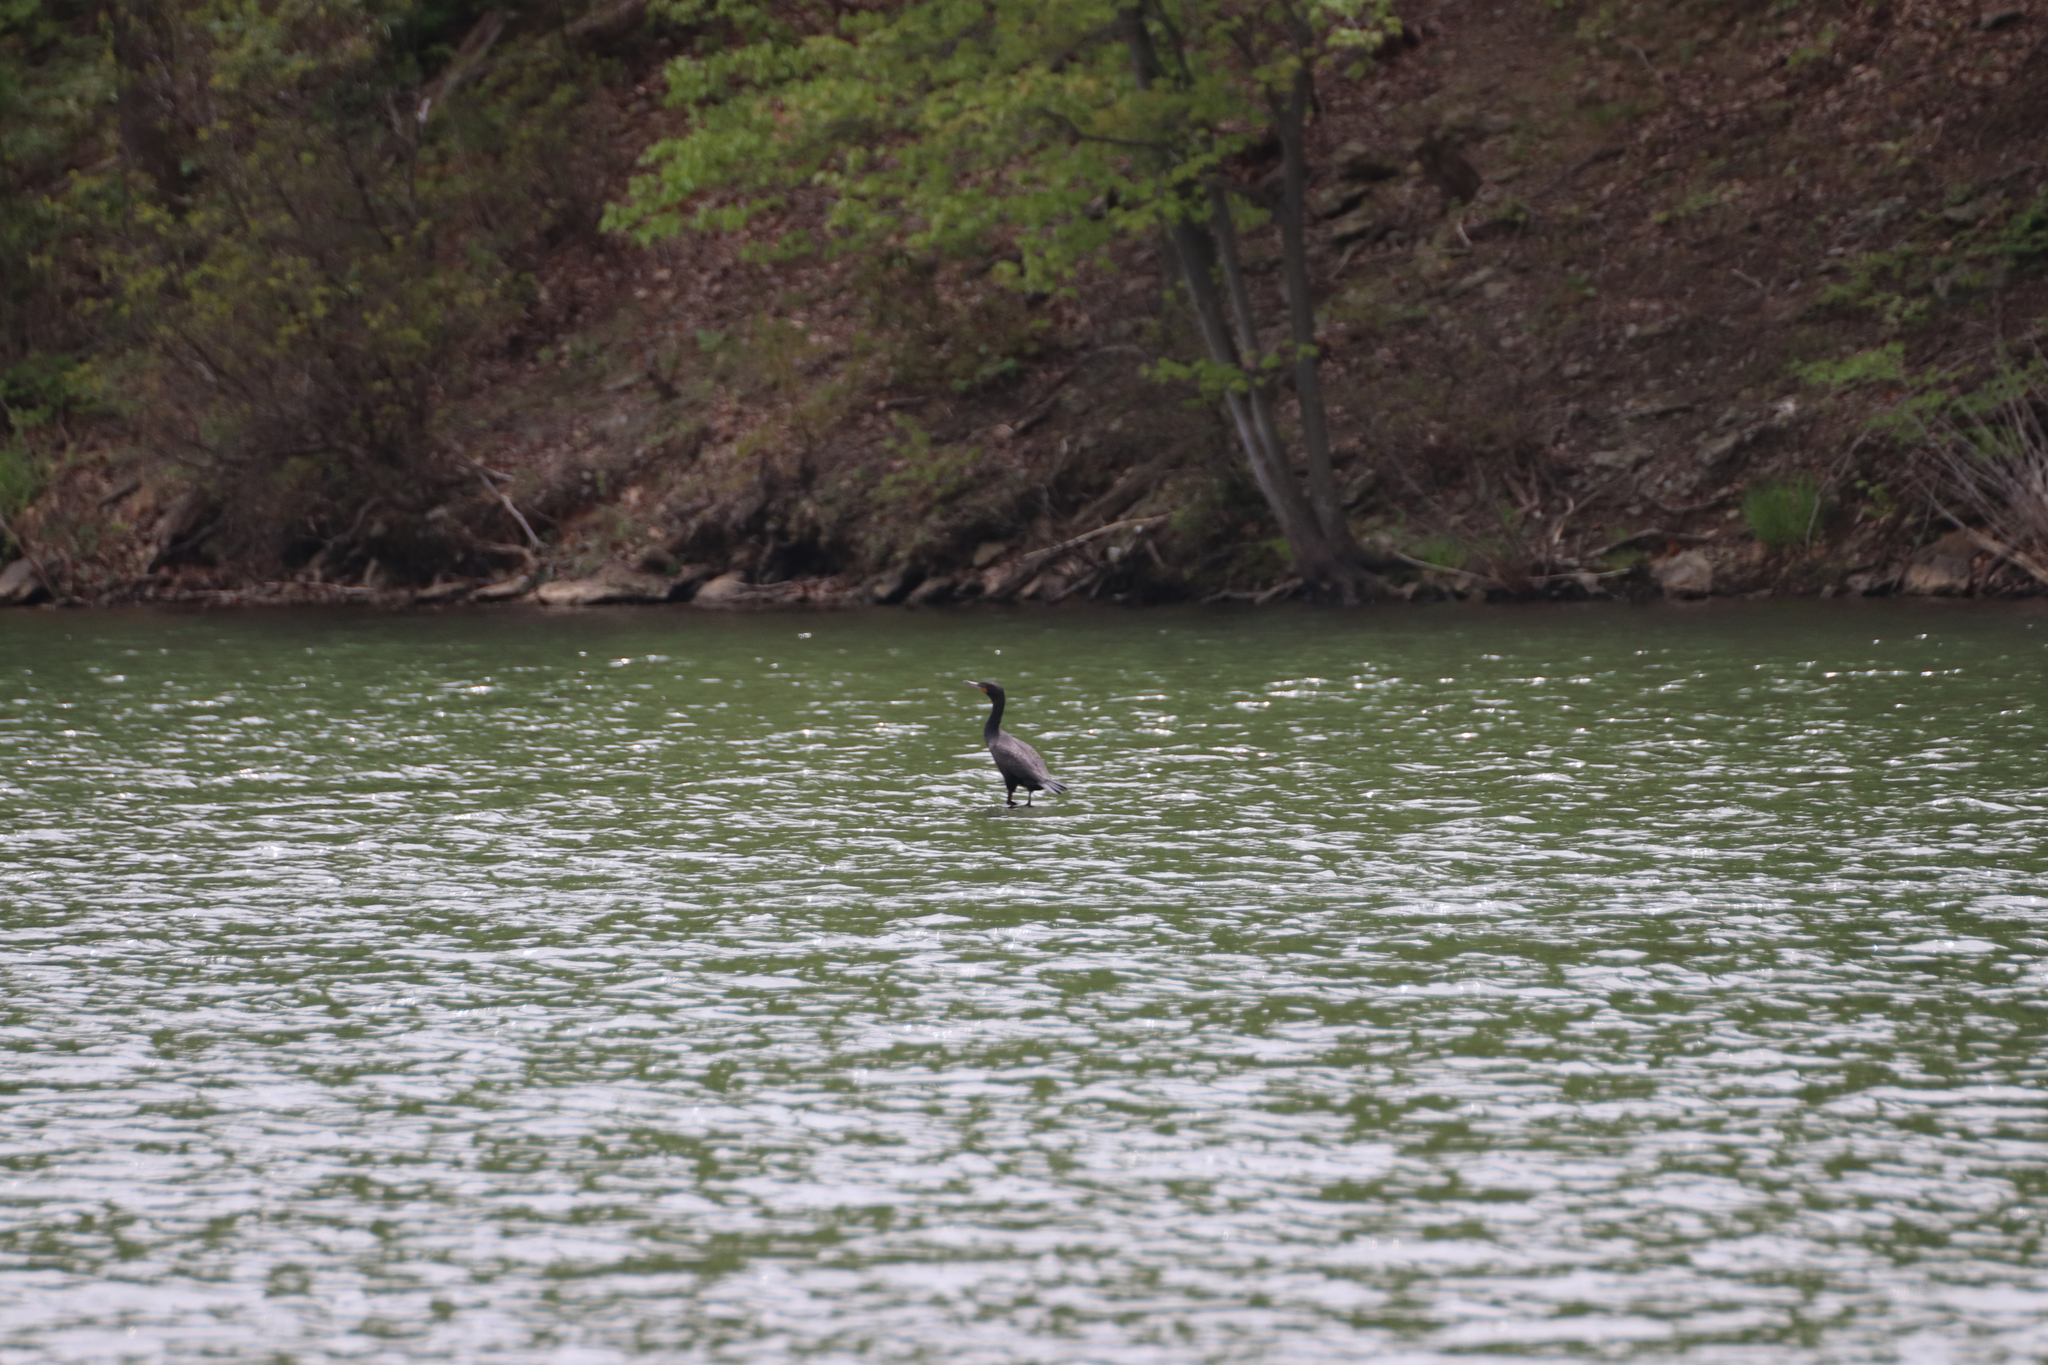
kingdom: Animalia
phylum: Chordata
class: Aves
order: Suliformes
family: Phalacrocoracidae
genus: Phalacrocorax
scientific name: Phalacrocorax auritus
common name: Double-crested cormorant
